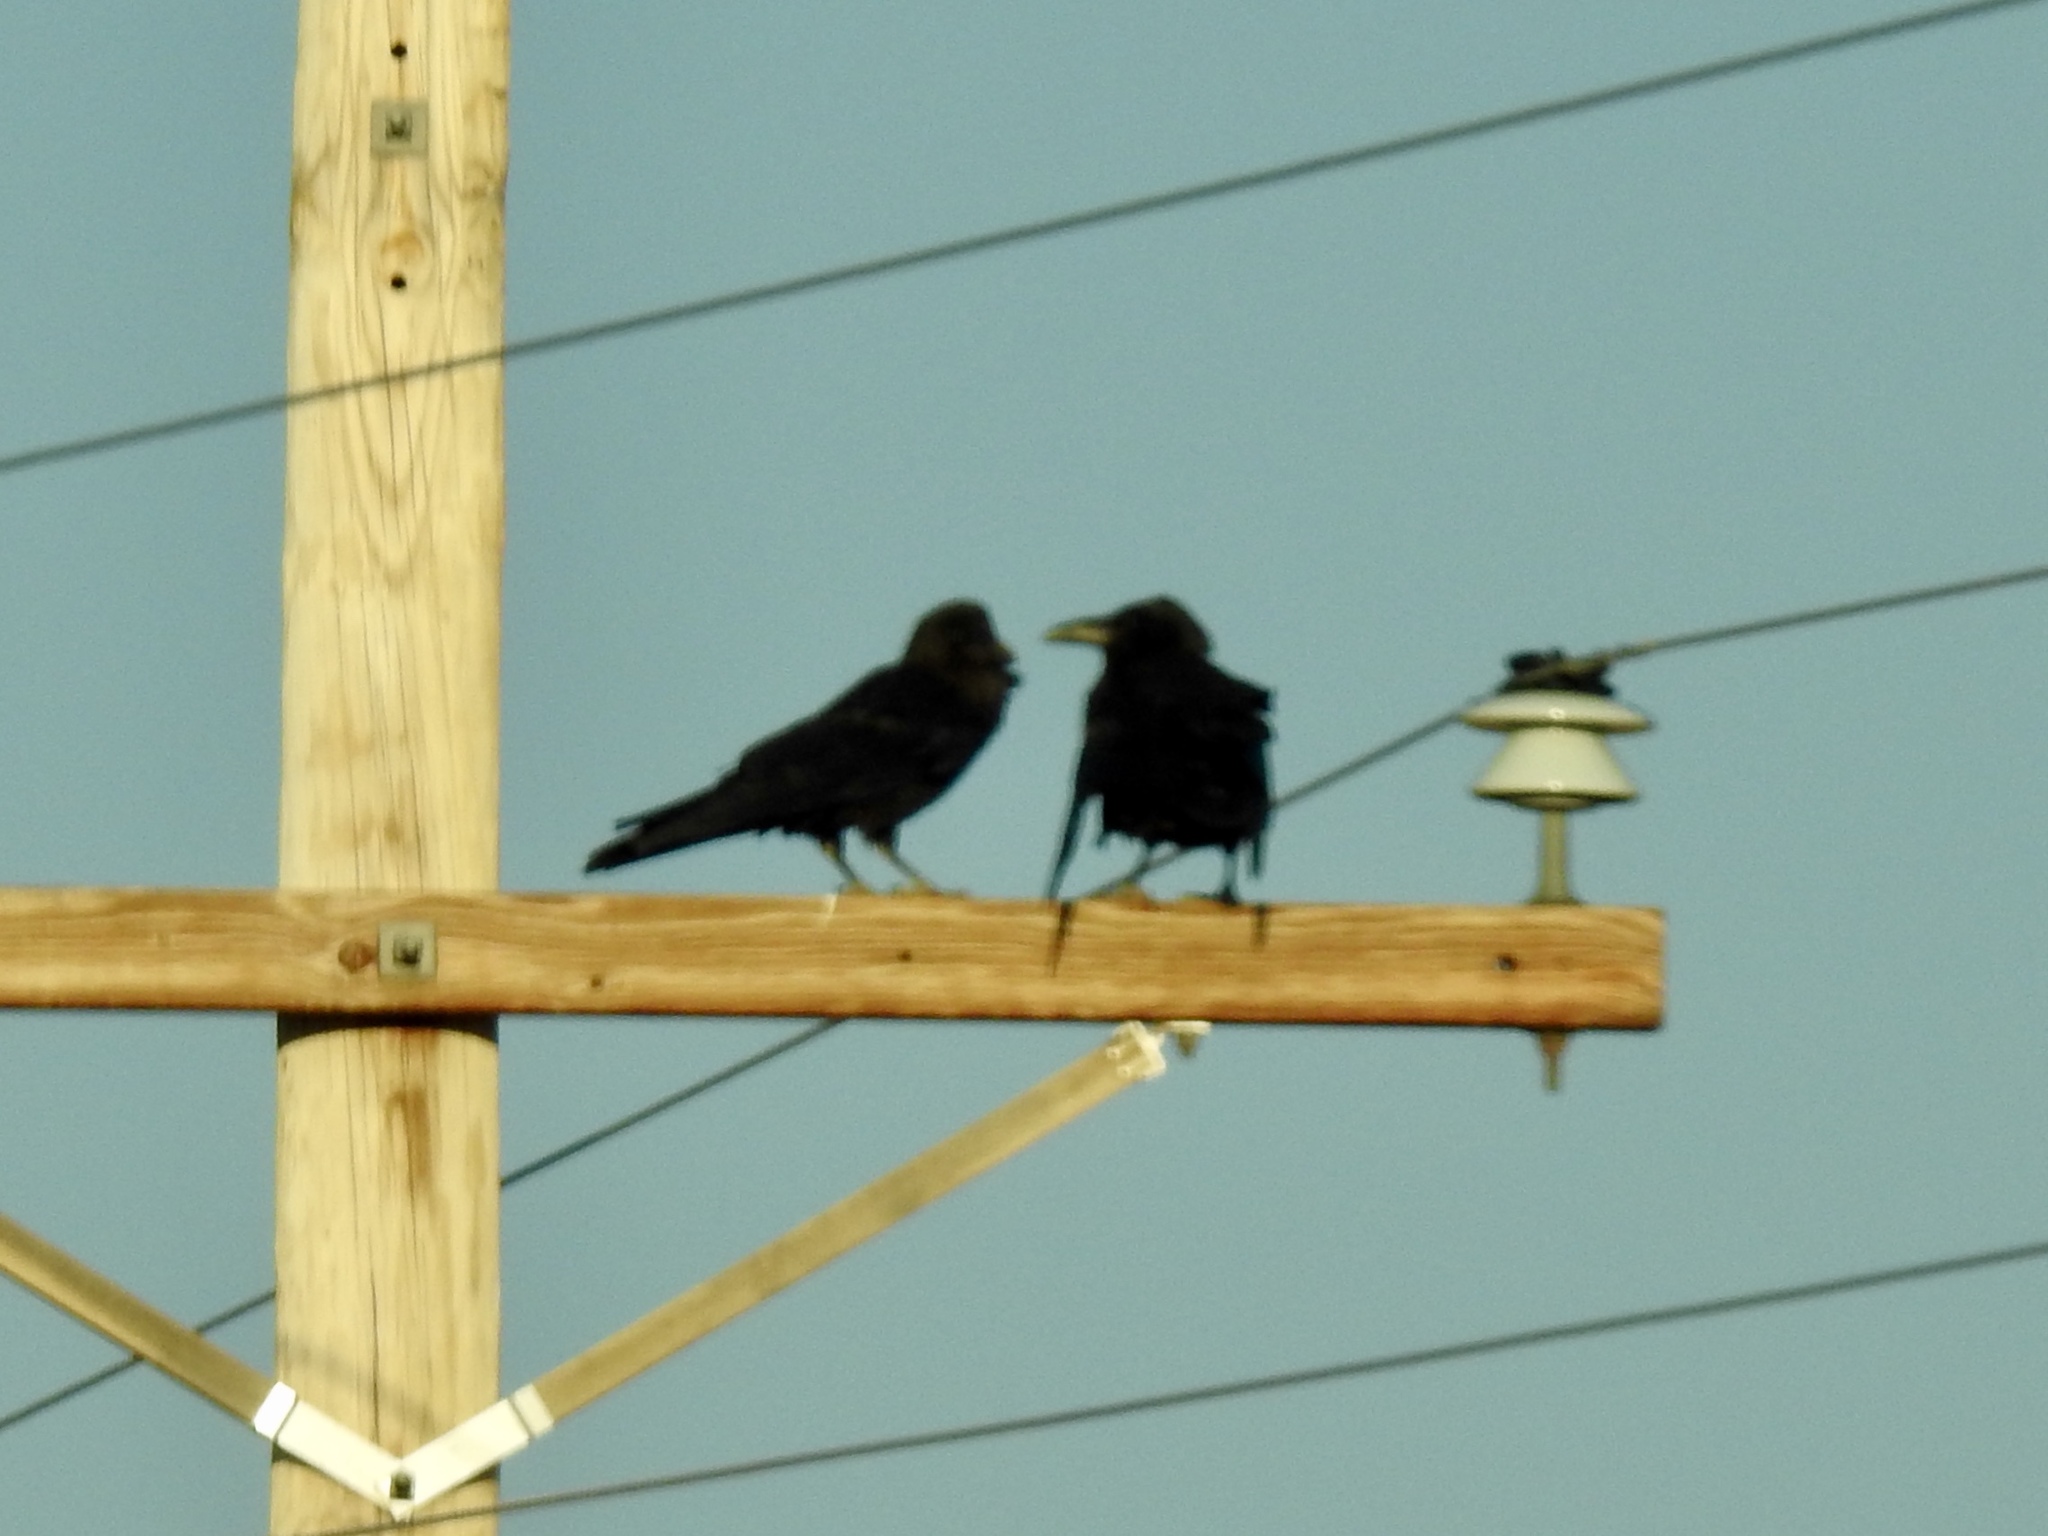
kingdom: Animalia
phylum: Chordata
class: Aves
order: Passeriformes
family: Corvidae
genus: Corvus
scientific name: Corvus corax
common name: Common raven
